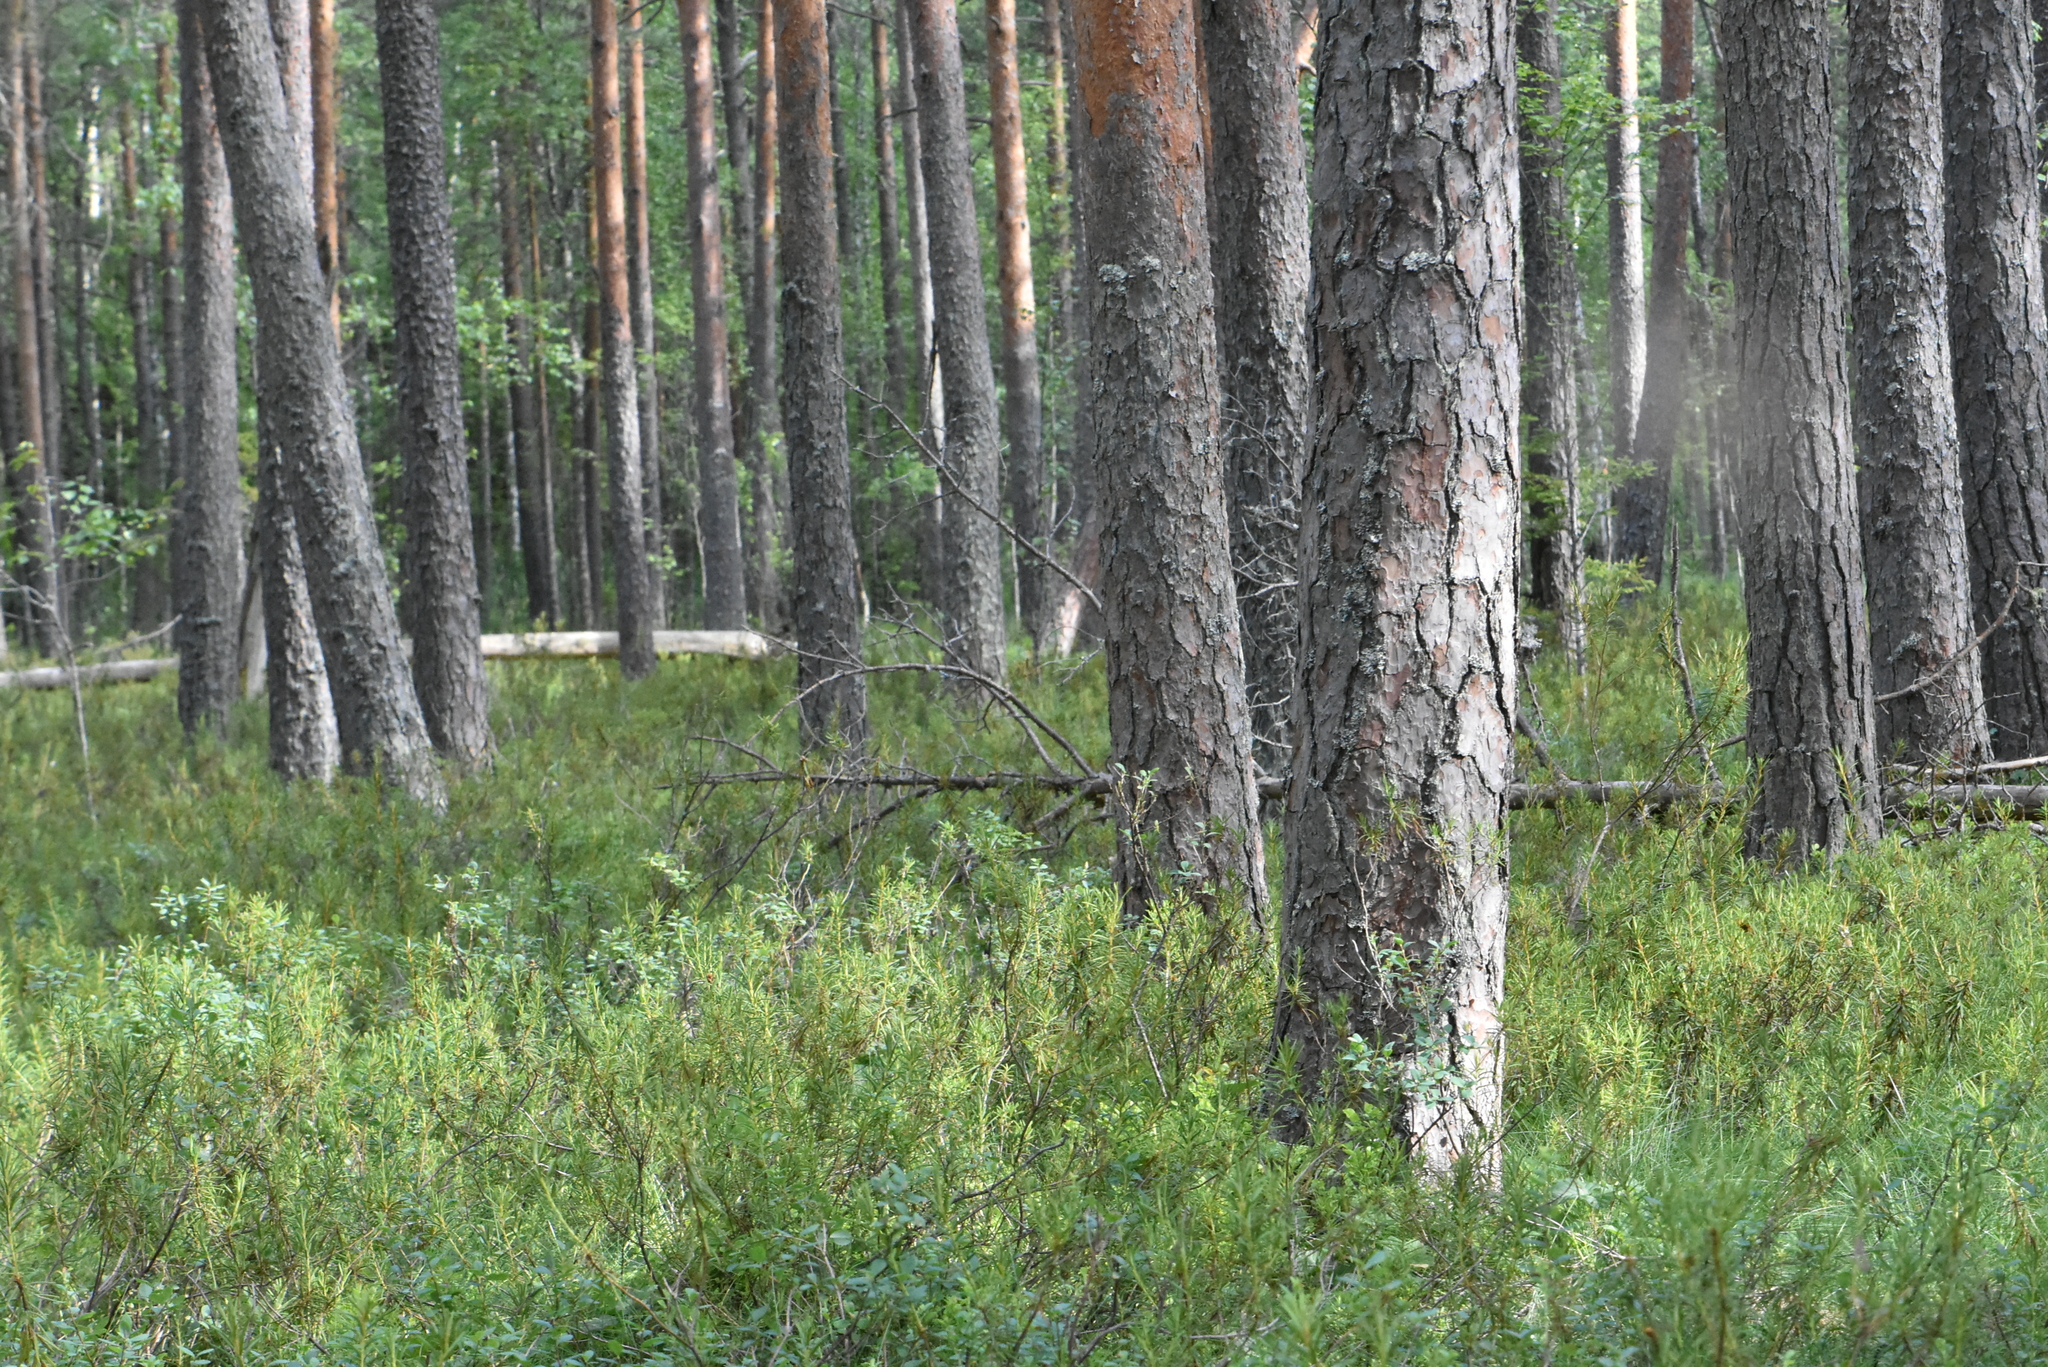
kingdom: Plantae
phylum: Tracheophyta
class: Pinopsida
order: Pinales
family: Pinaceae
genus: Pinus
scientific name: Pinus sylvestris
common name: Scots pine
